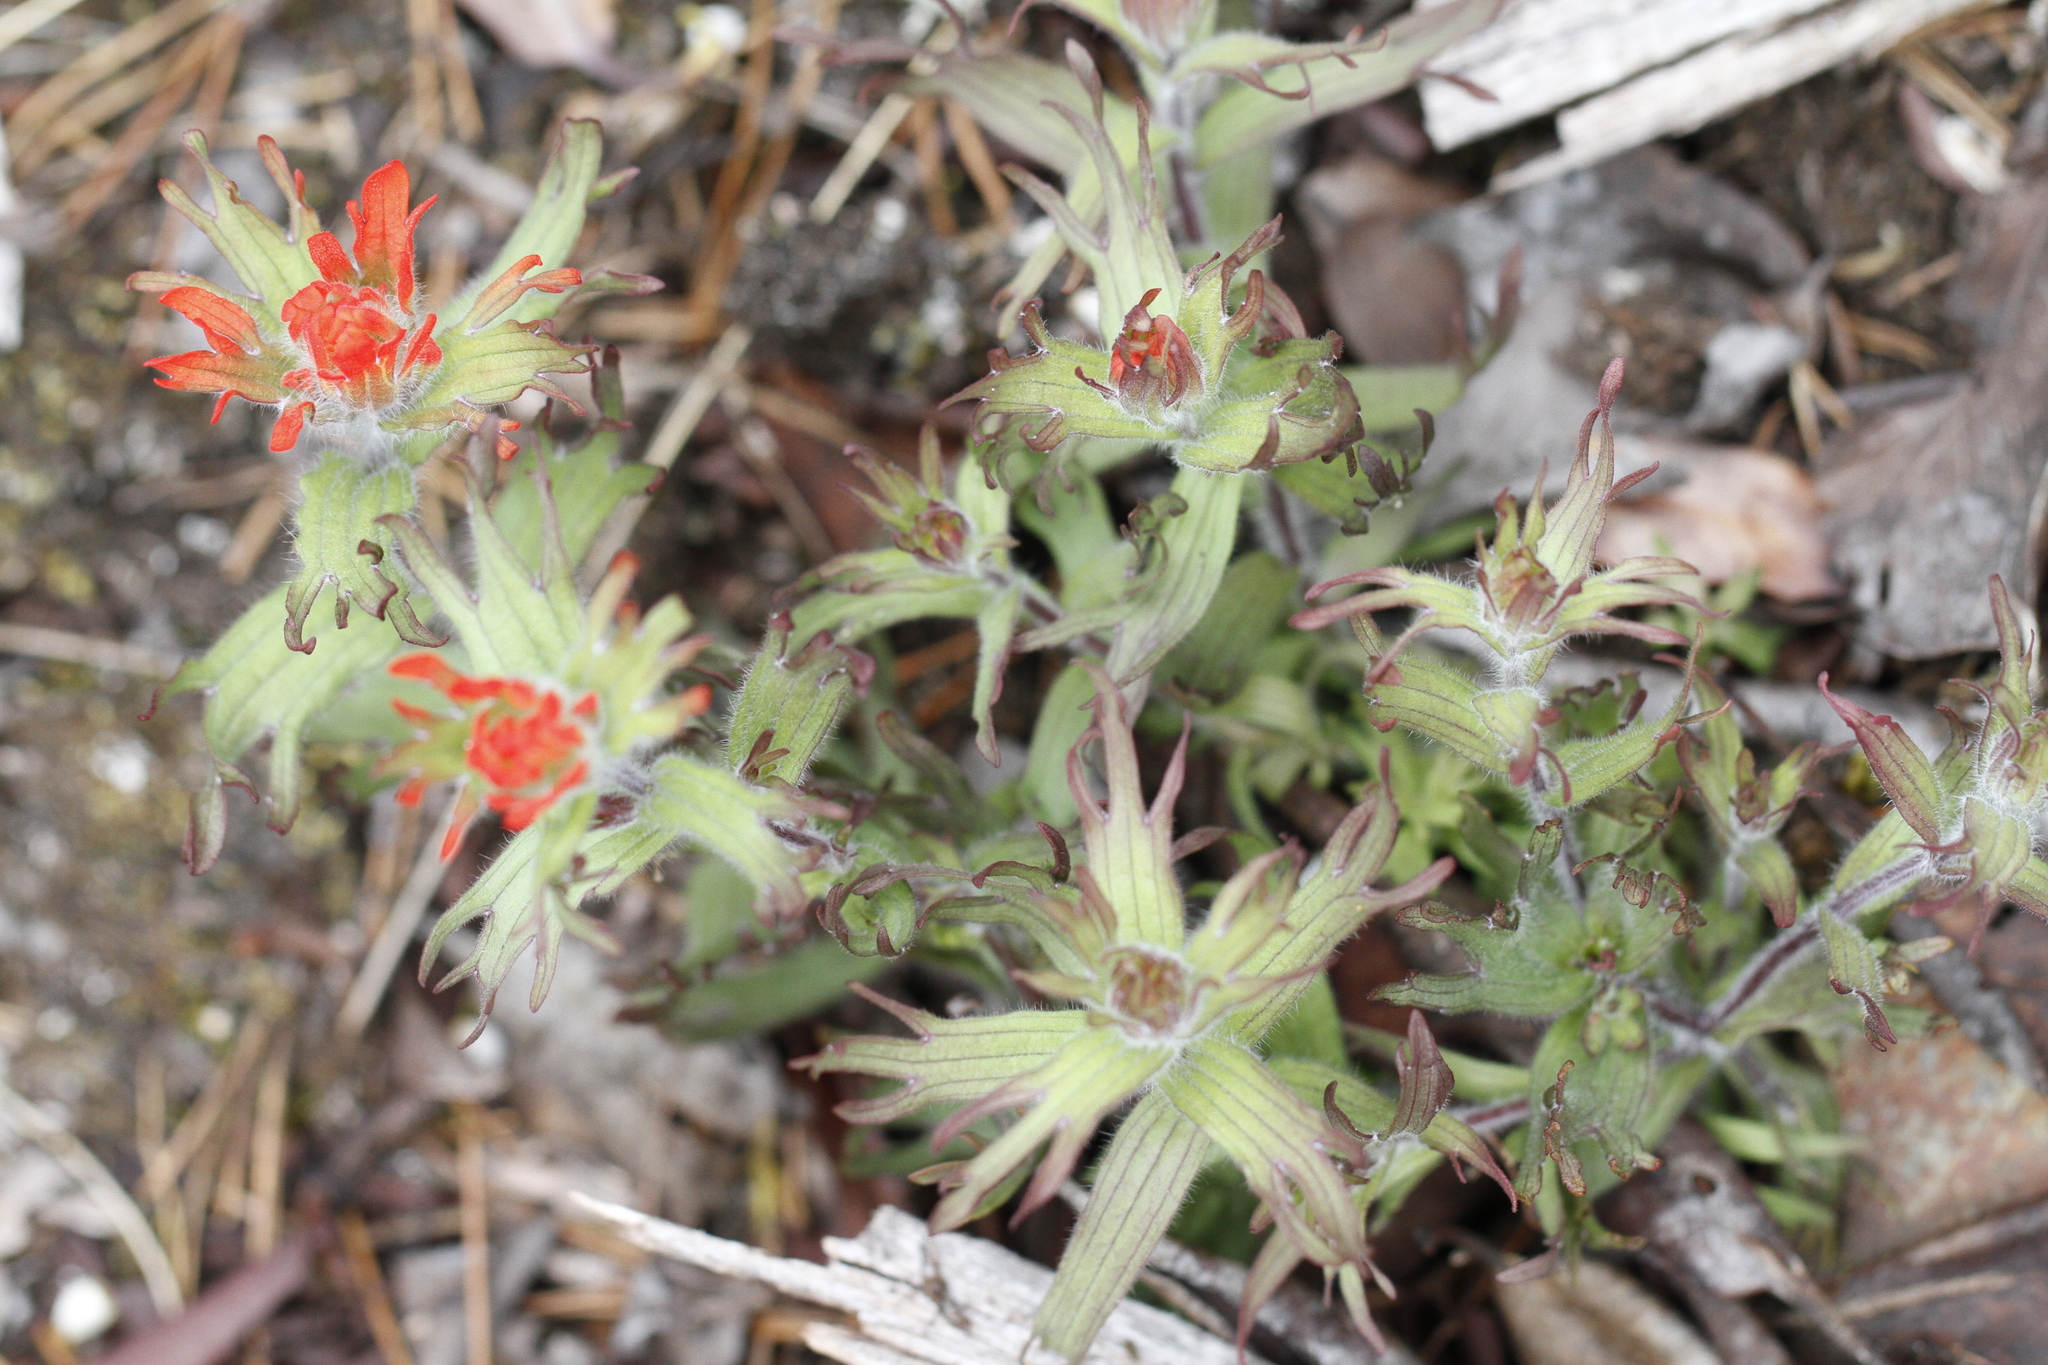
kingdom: Plantae
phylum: Tracheophyta
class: Magnoliopsida
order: Lamiales
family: Orobanchaceae
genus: Castilleja
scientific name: Castilleja hispida
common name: Bristly paintbrush
